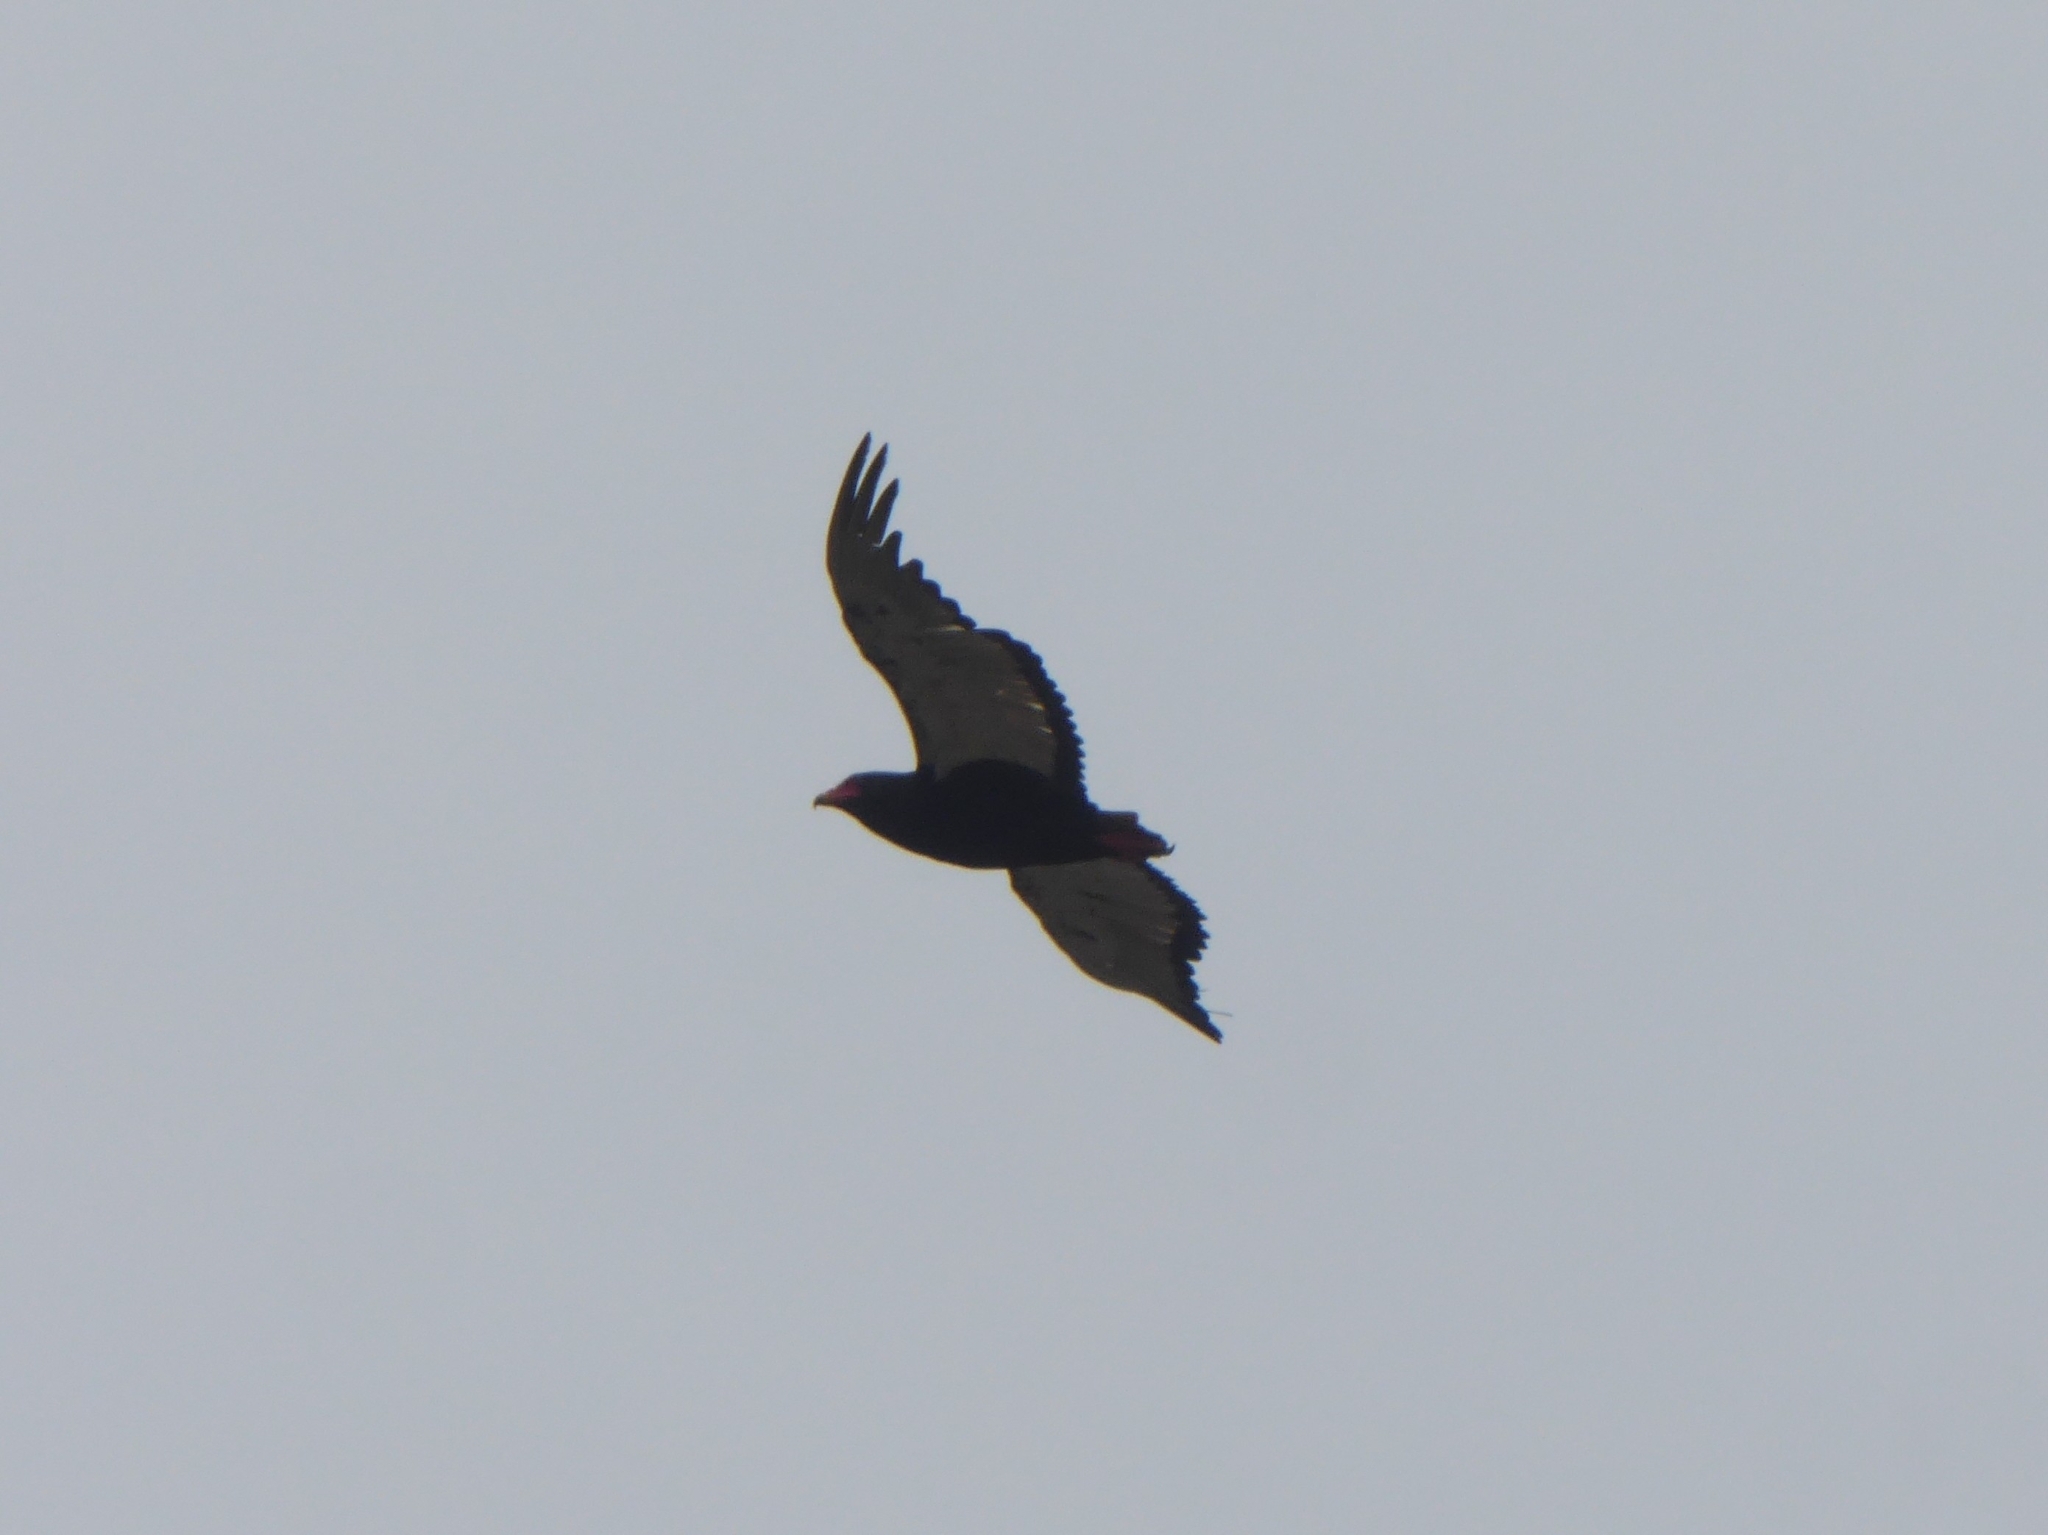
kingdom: Animalia
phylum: Chordata
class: Aves
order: Accipitriformes
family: Accipitridae
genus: Terathopius
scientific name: Terathopius ecaudatus
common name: Bateleur
